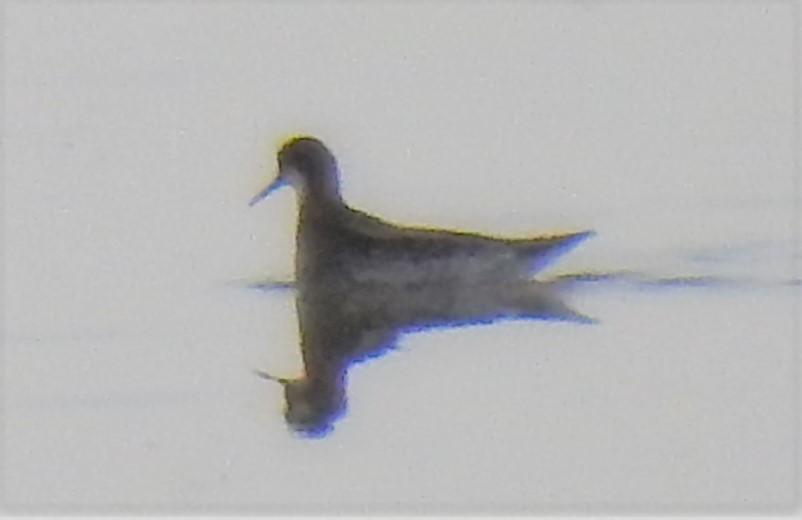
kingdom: Animalia
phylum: Chordata
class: Aves
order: Charadriiformes
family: Scolopacidae
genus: Phalaropus
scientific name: Phalaropus lobatus
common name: Red-necked phalarope
